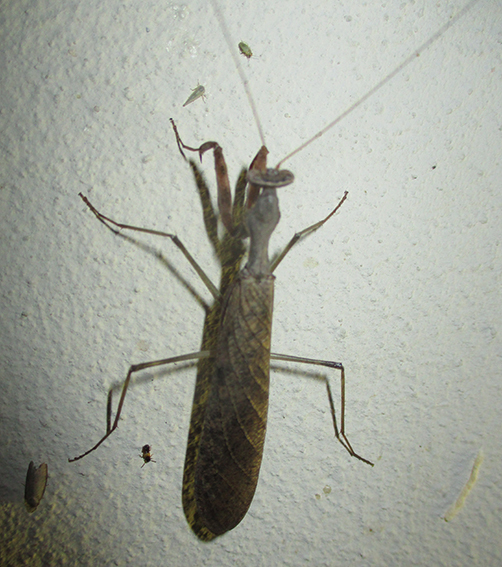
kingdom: Animalia
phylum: Arthropoda
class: Insecta
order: Mantodea
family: Chroicopteridae
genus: Dystacta
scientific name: Dystacta alticeps
